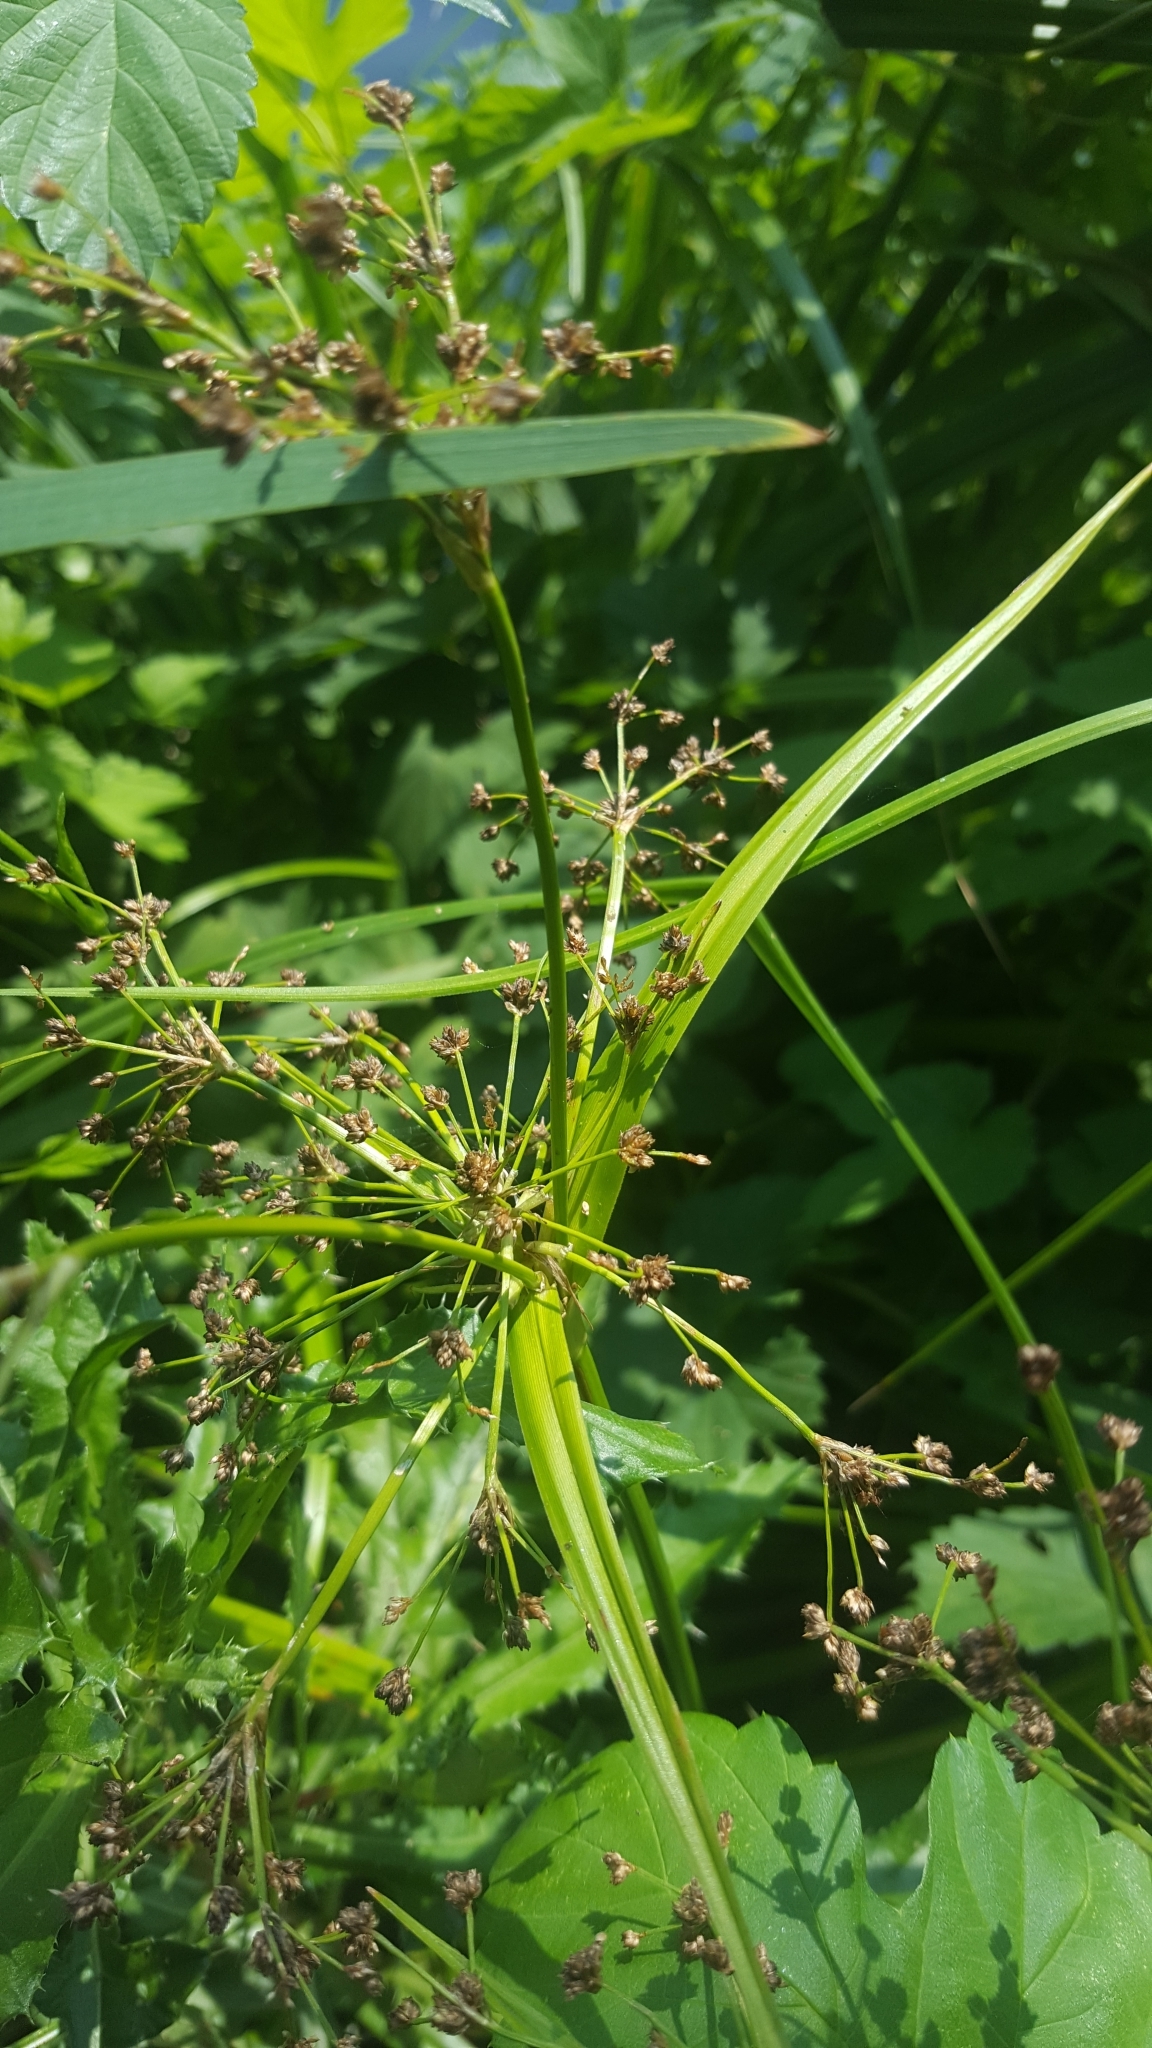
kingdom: Plantae
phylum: Tracheophyta
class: Liliopsida
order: Poales
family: Cyperaceae
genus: Scirpus
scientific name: Scirpus sylvaticus
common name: Wood club-rush
